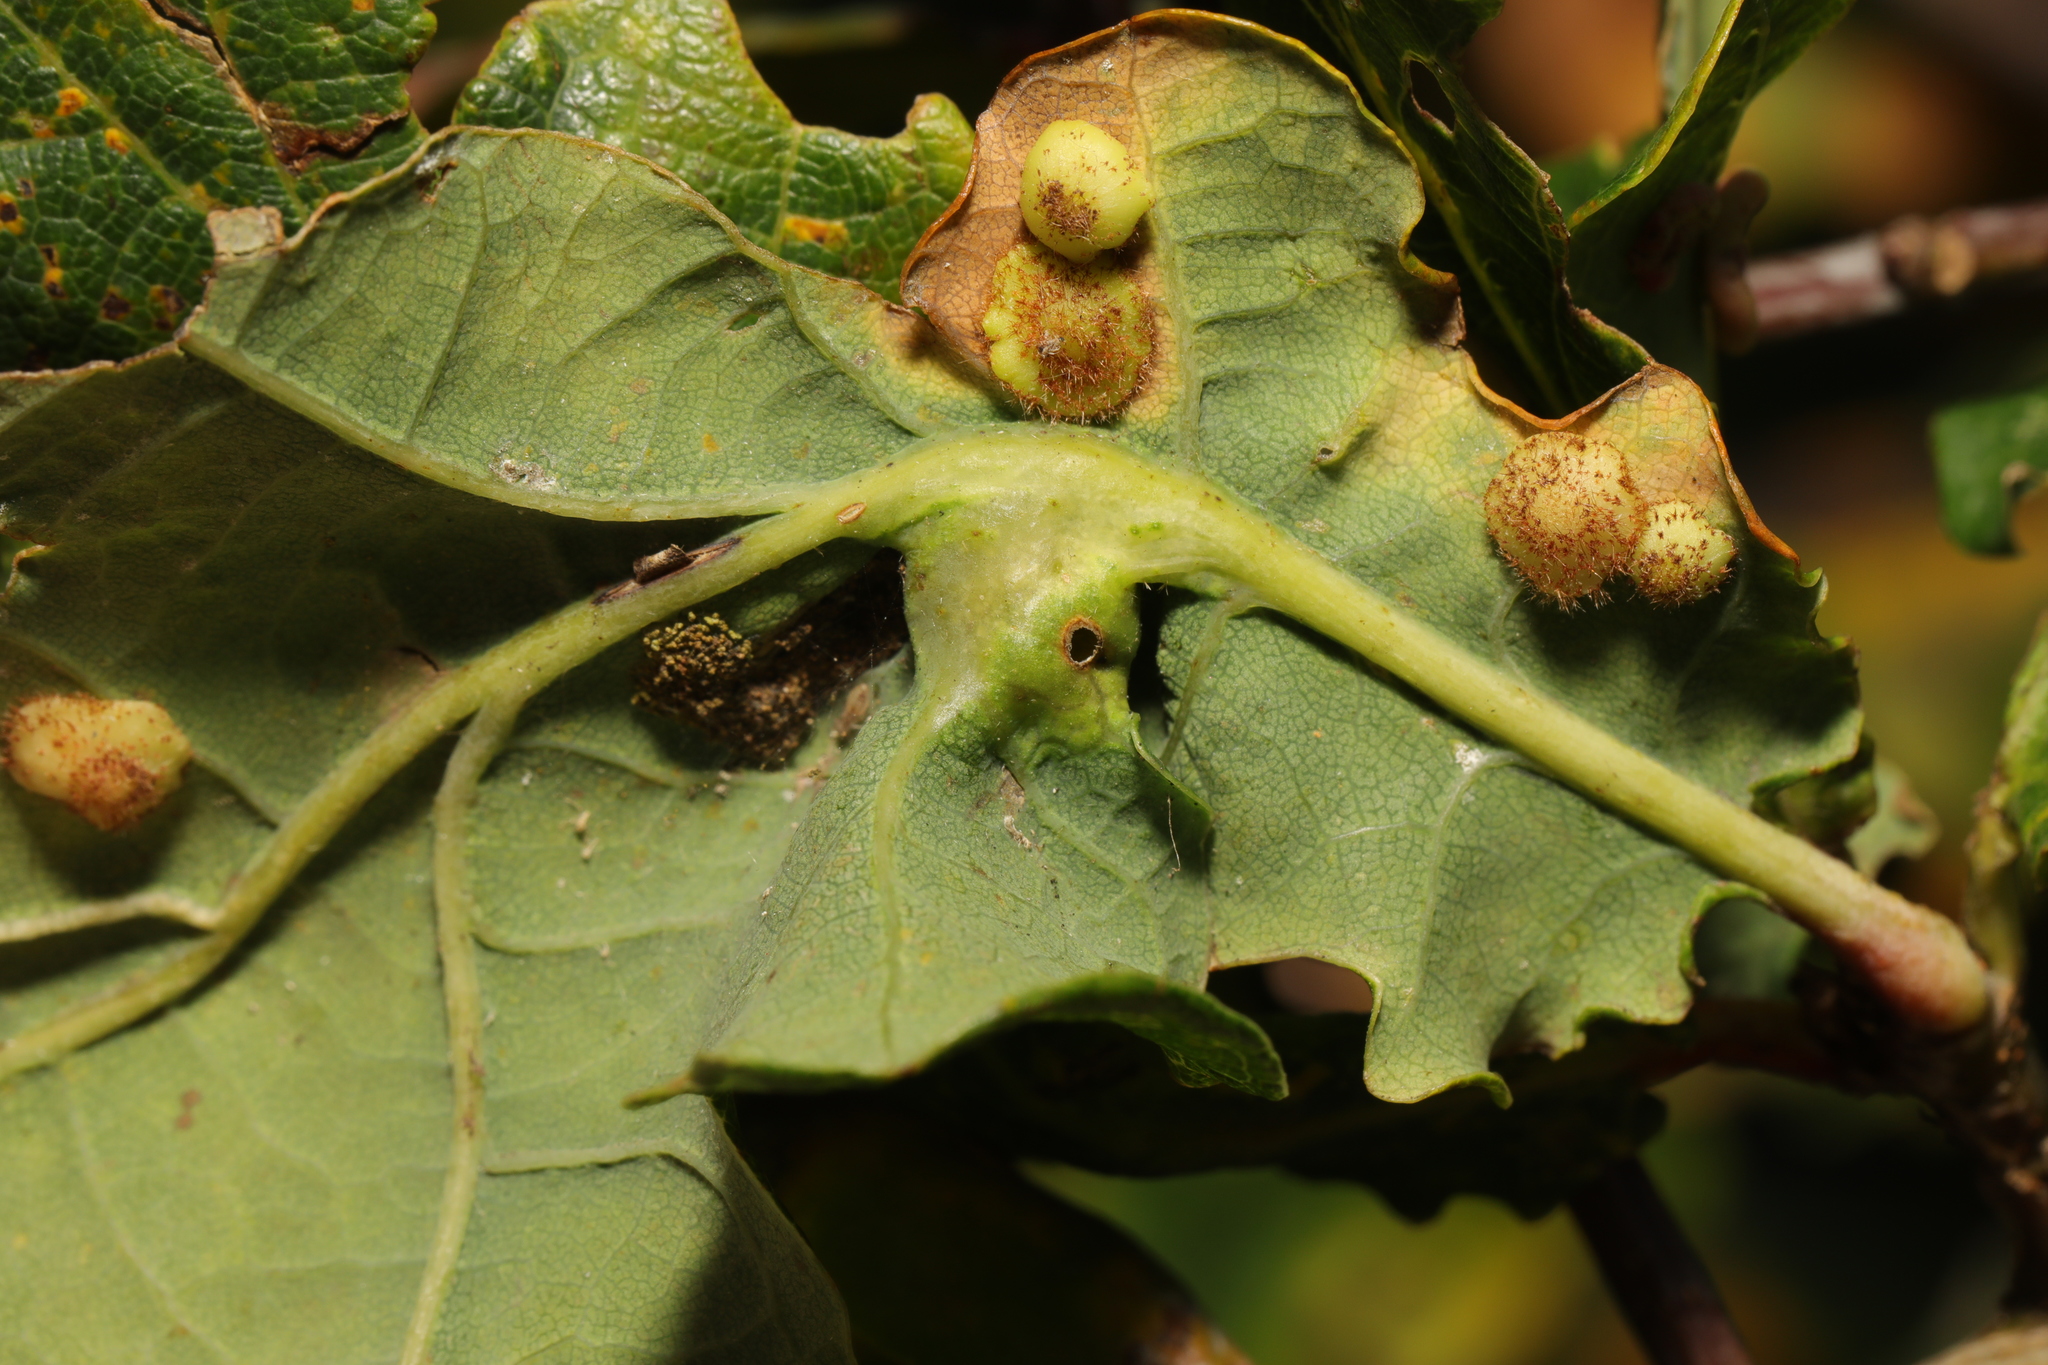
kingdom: Animalia
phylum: Arthropoda
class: Insecta
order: Hymenoptera
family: Cynipidae
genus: Andricus
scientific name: Andricus curvator
